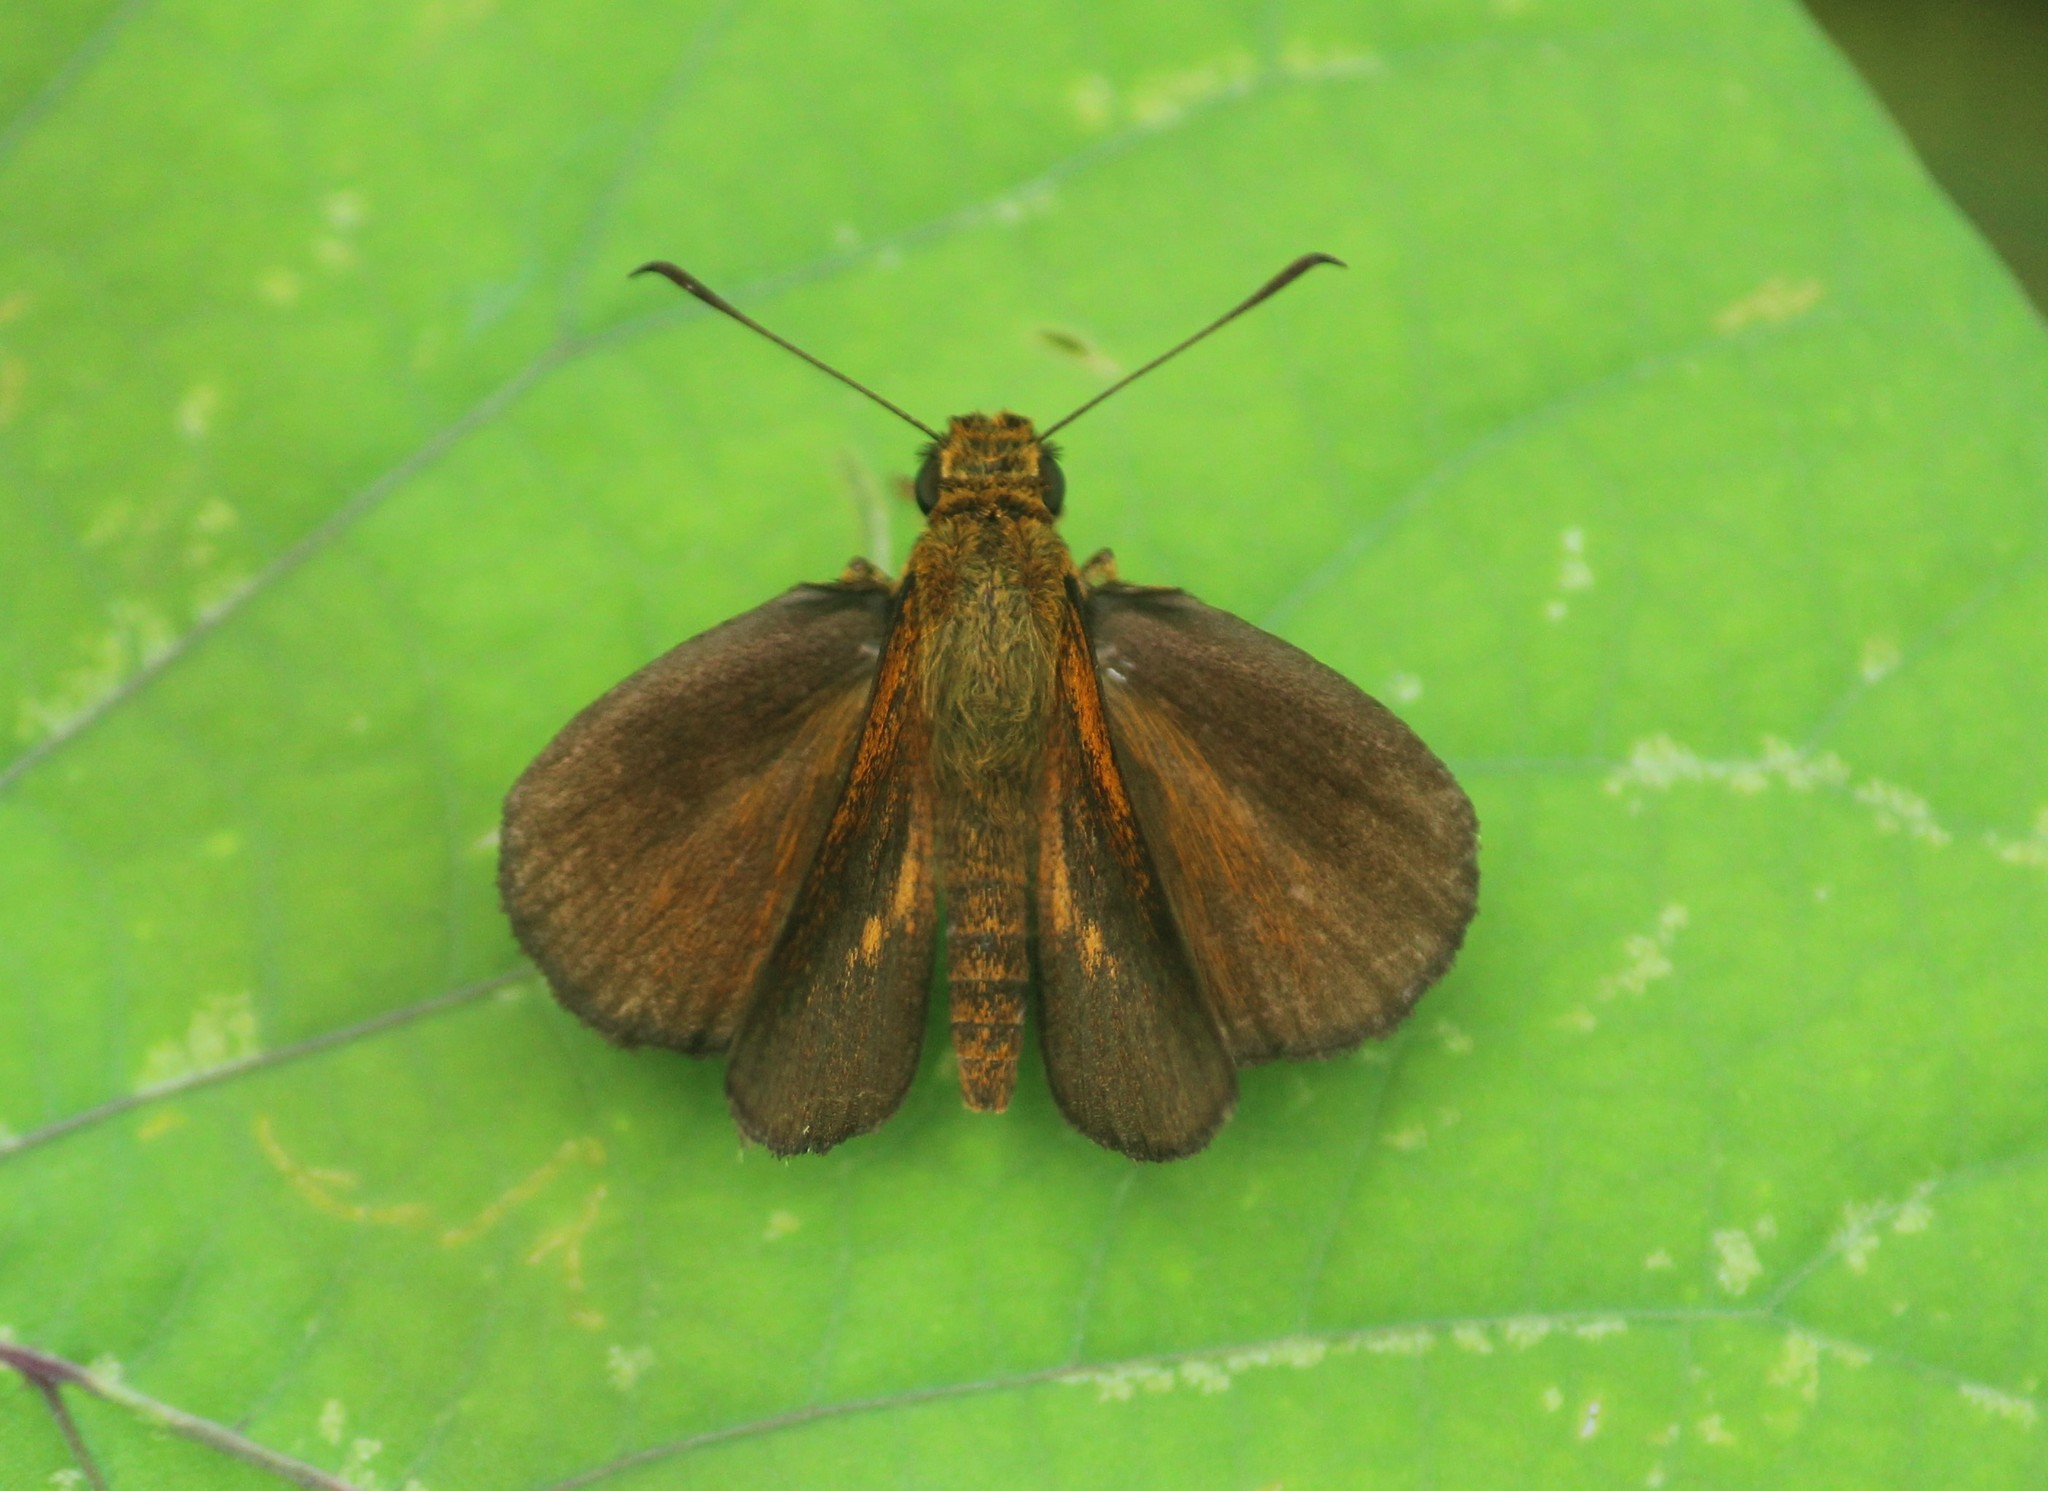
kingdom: Animalia
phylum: Arthropoda
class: Insecta
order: Lepidoptera
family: Hesperiidae
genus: Iambrix
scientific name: Iambrix salsala
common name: Chestnut bob
